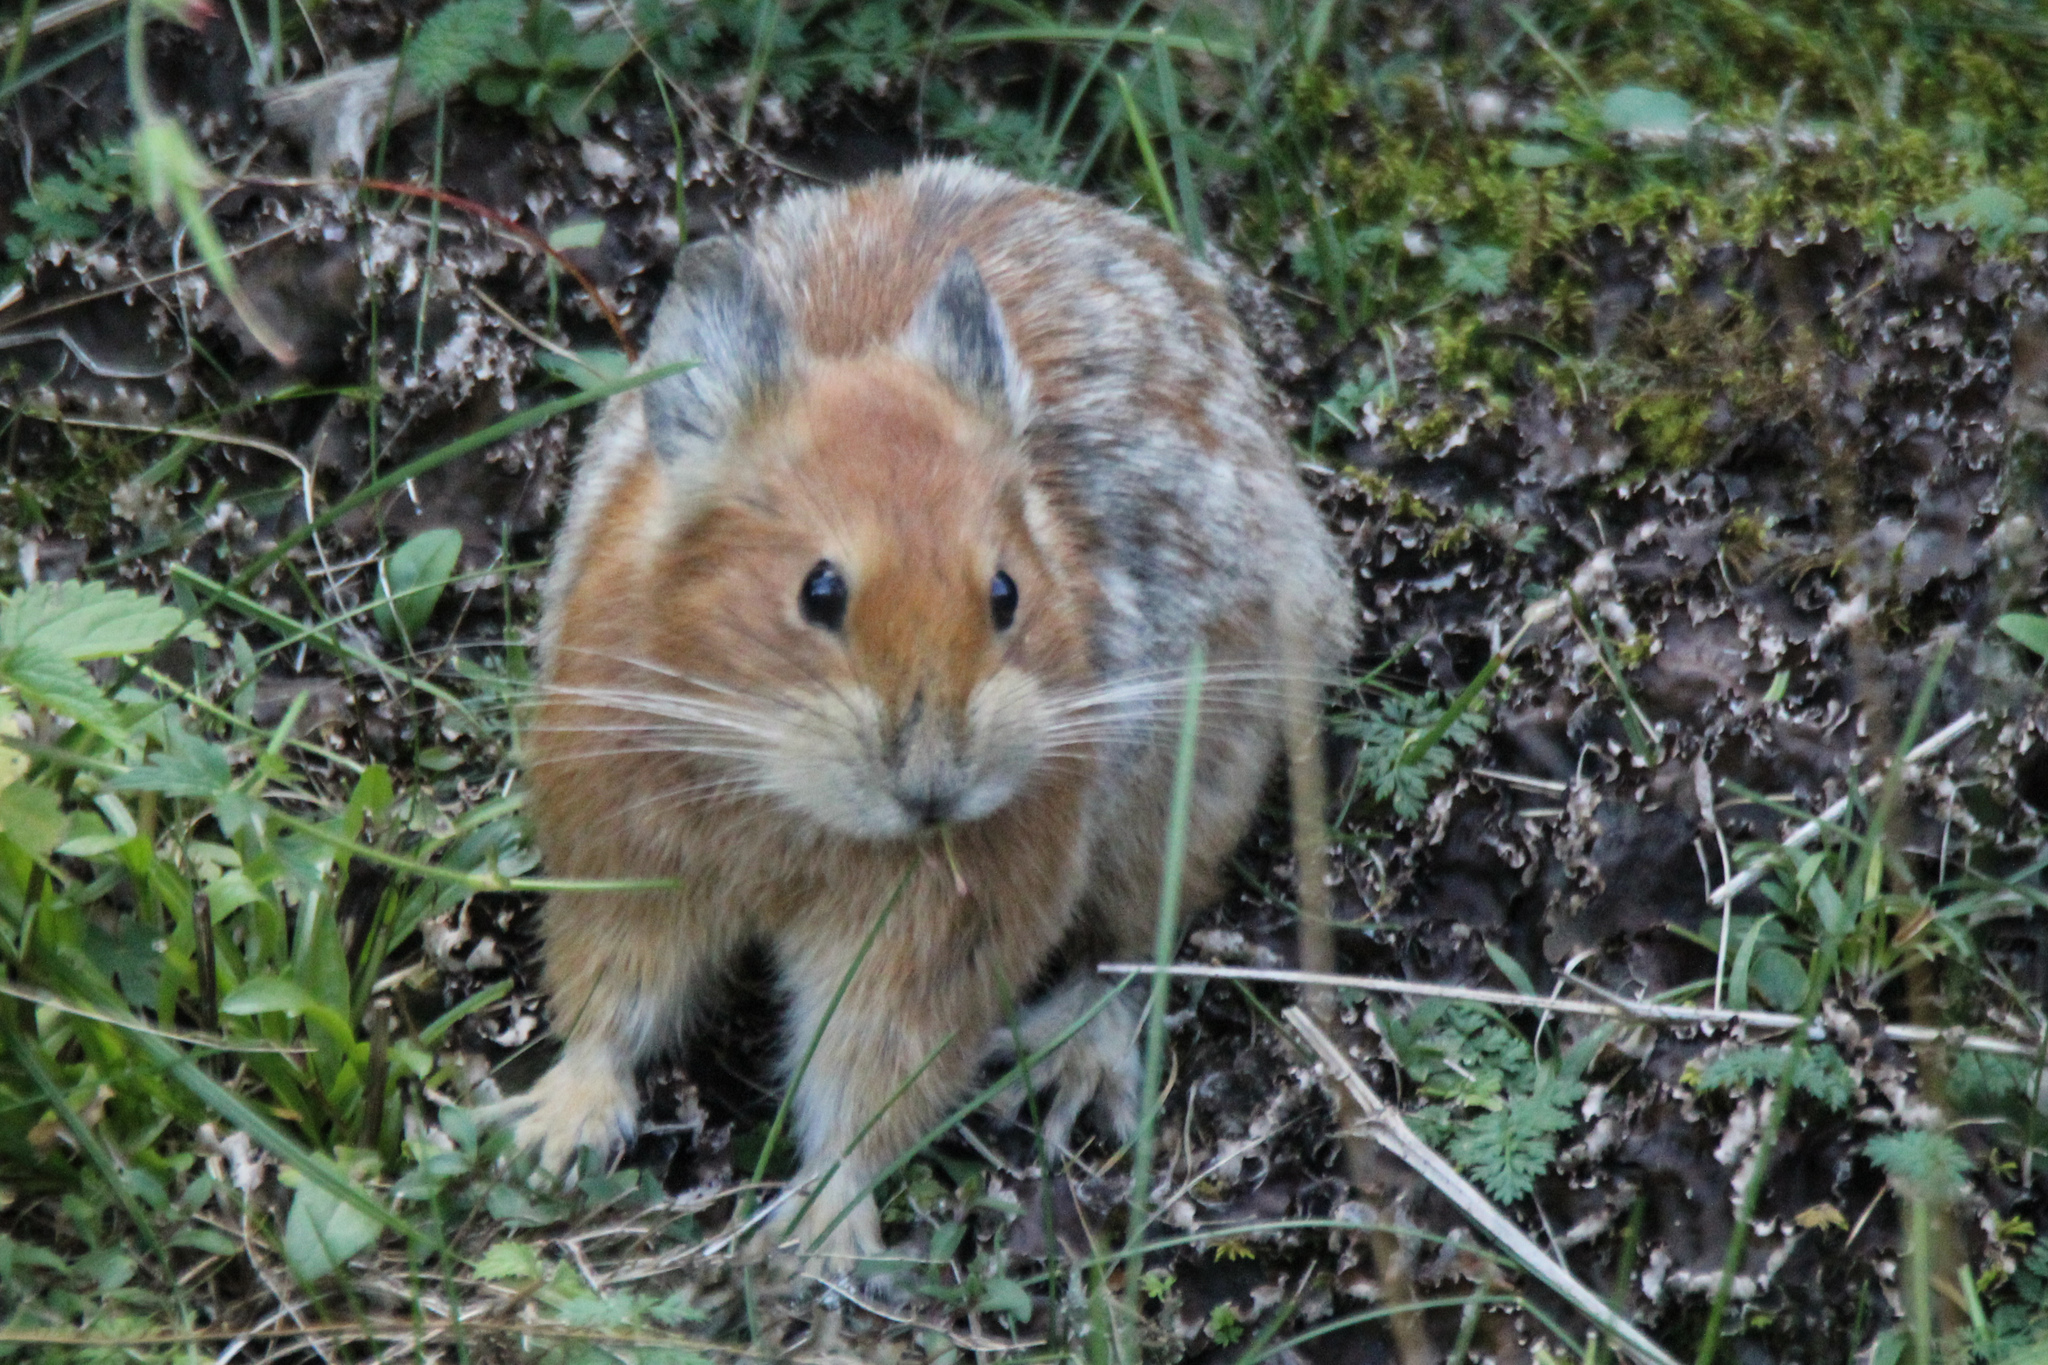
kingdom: Animalia
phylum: Chordata
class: Mammalia
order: Lagomorpha
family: Ochotonidae
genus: Ochotona
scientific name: Ochotona rutila
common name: Turkestan red pika
